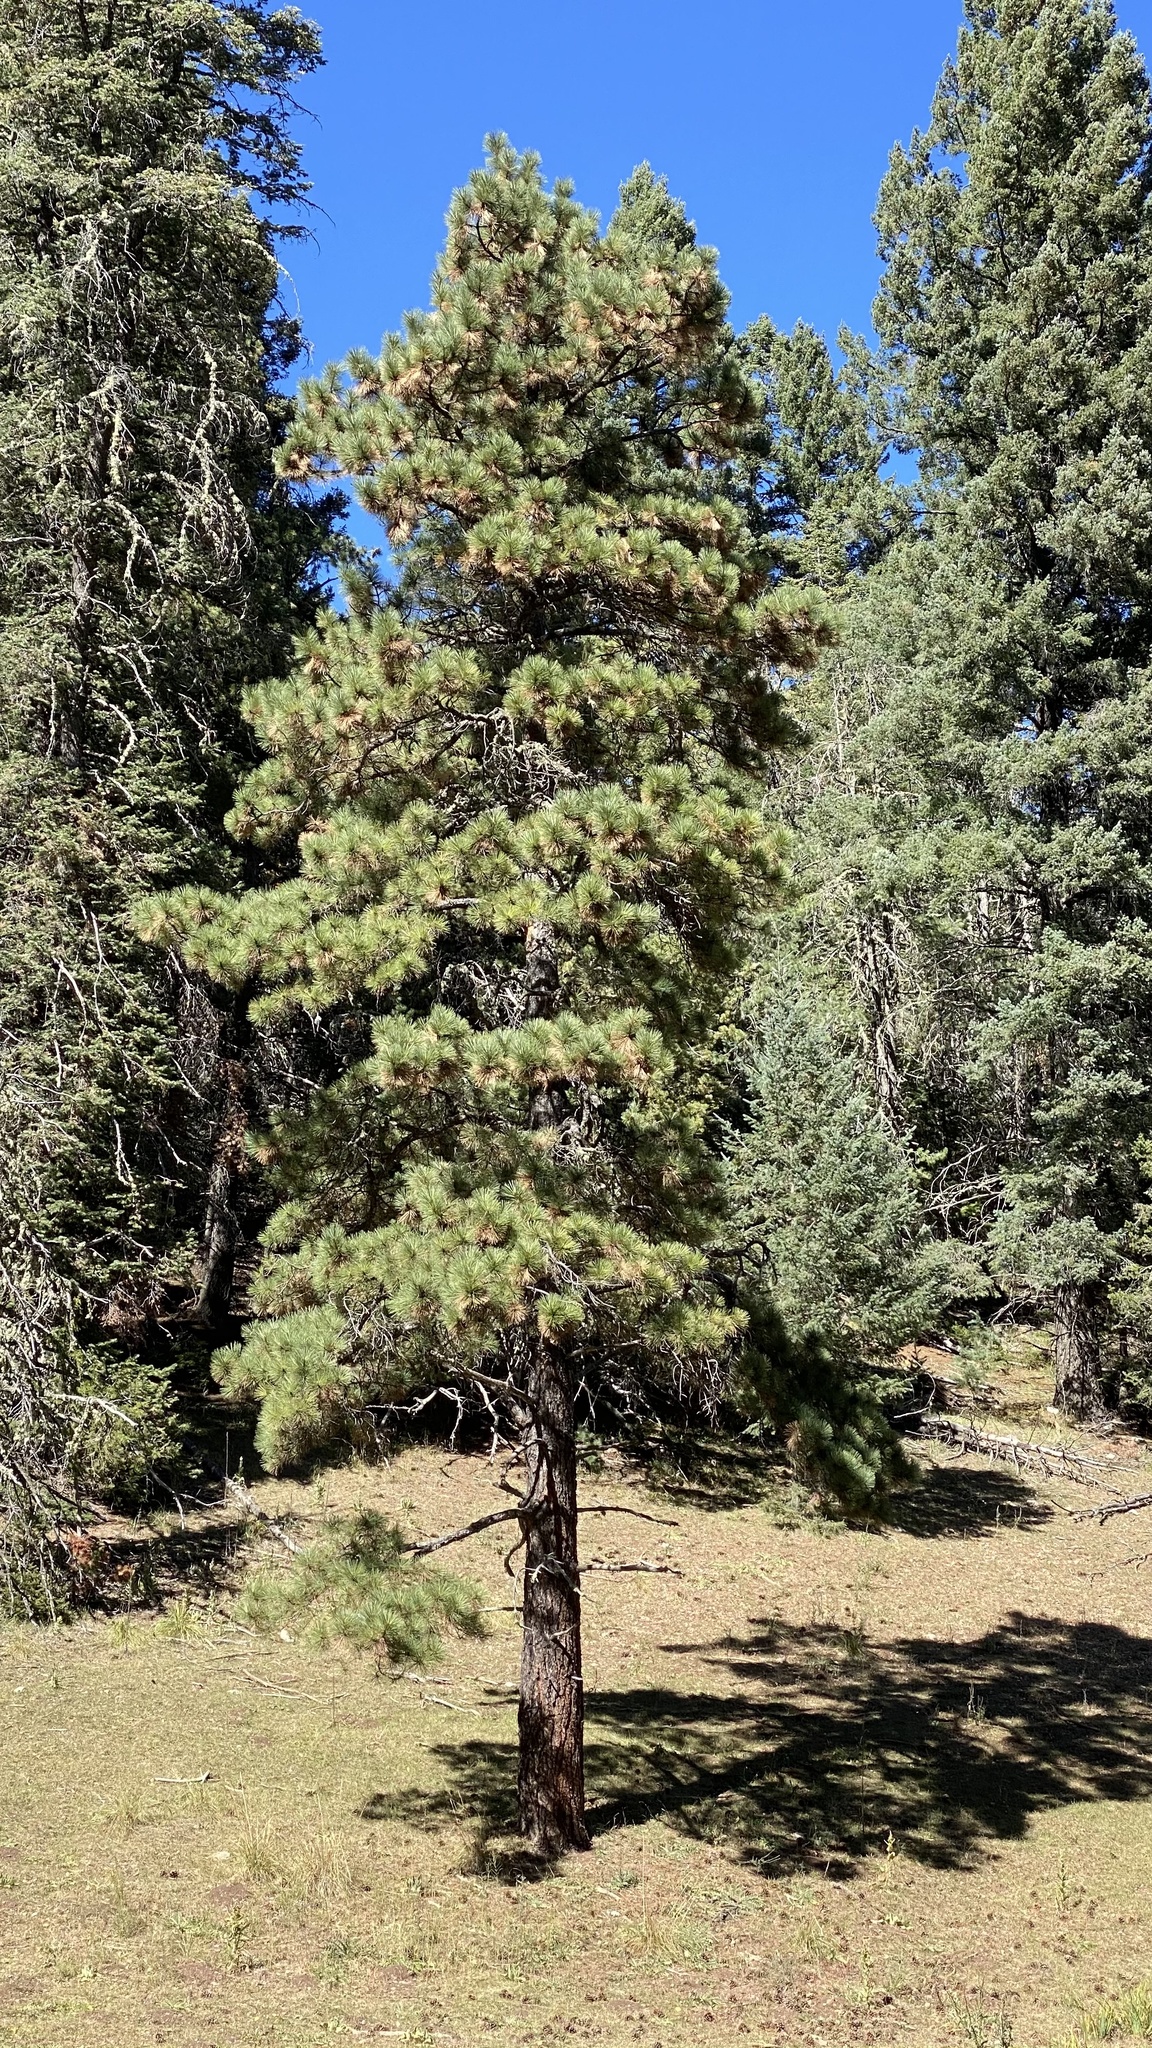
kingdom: Plantae
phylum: Tracheophyta
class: Pinopsida
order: Pinales
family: Pinaceae
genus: Pinus
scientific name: Pinus ponderosa
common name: Western yellow-pine
